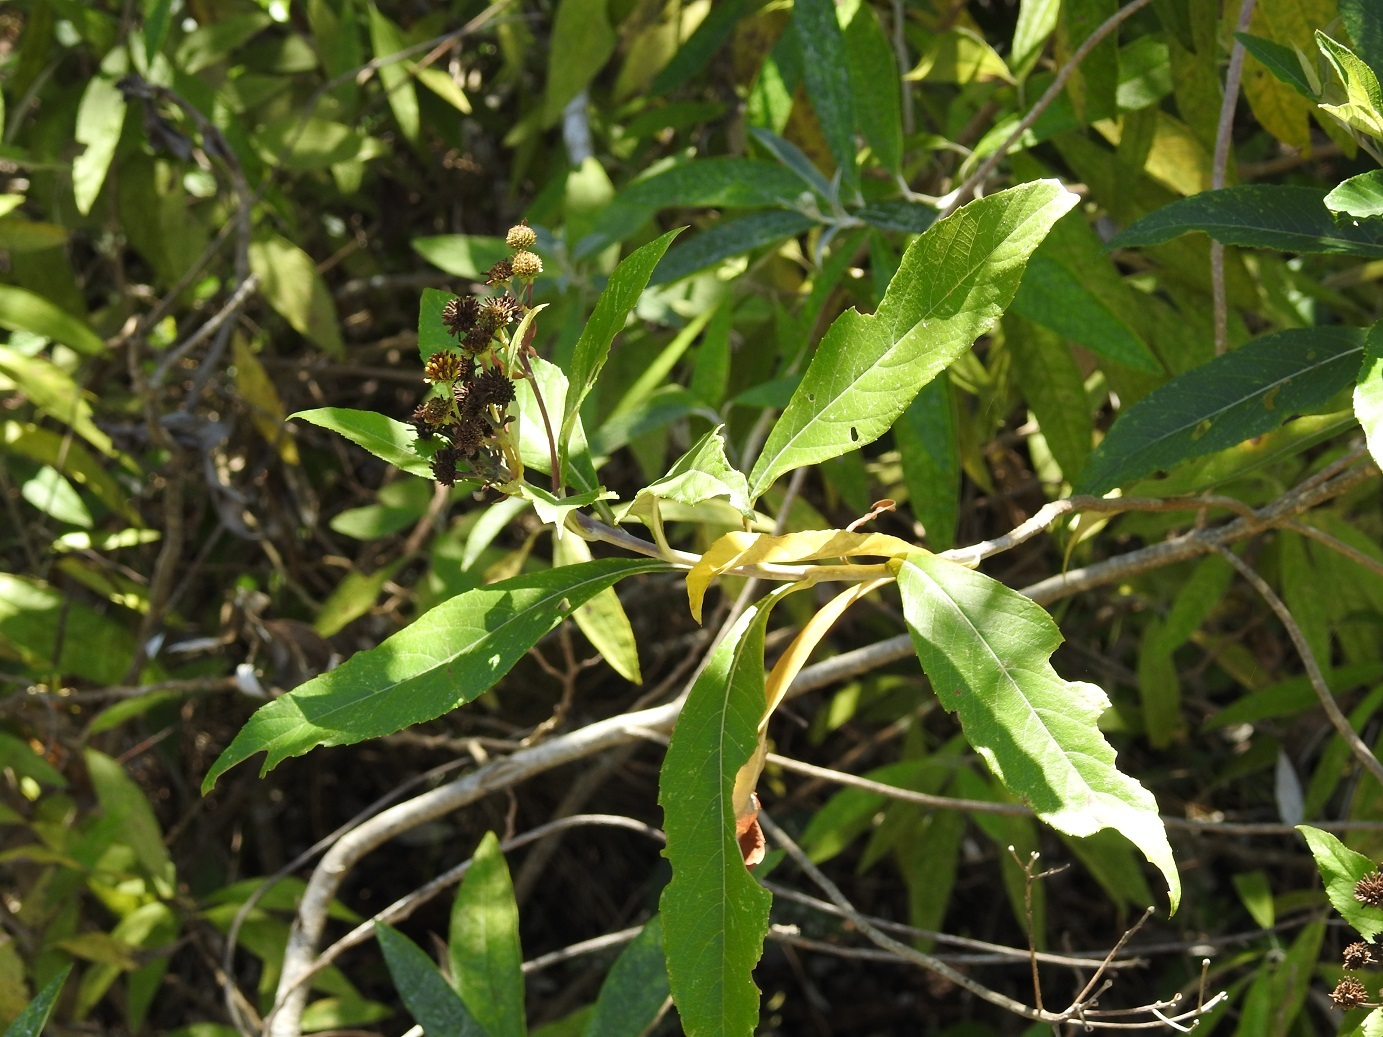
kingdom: Plantae
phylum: Tracheophyta
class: Magnoliopsida
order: Asterales
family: Asteraceae
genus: Verbesina
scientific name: Verbesina apleura
